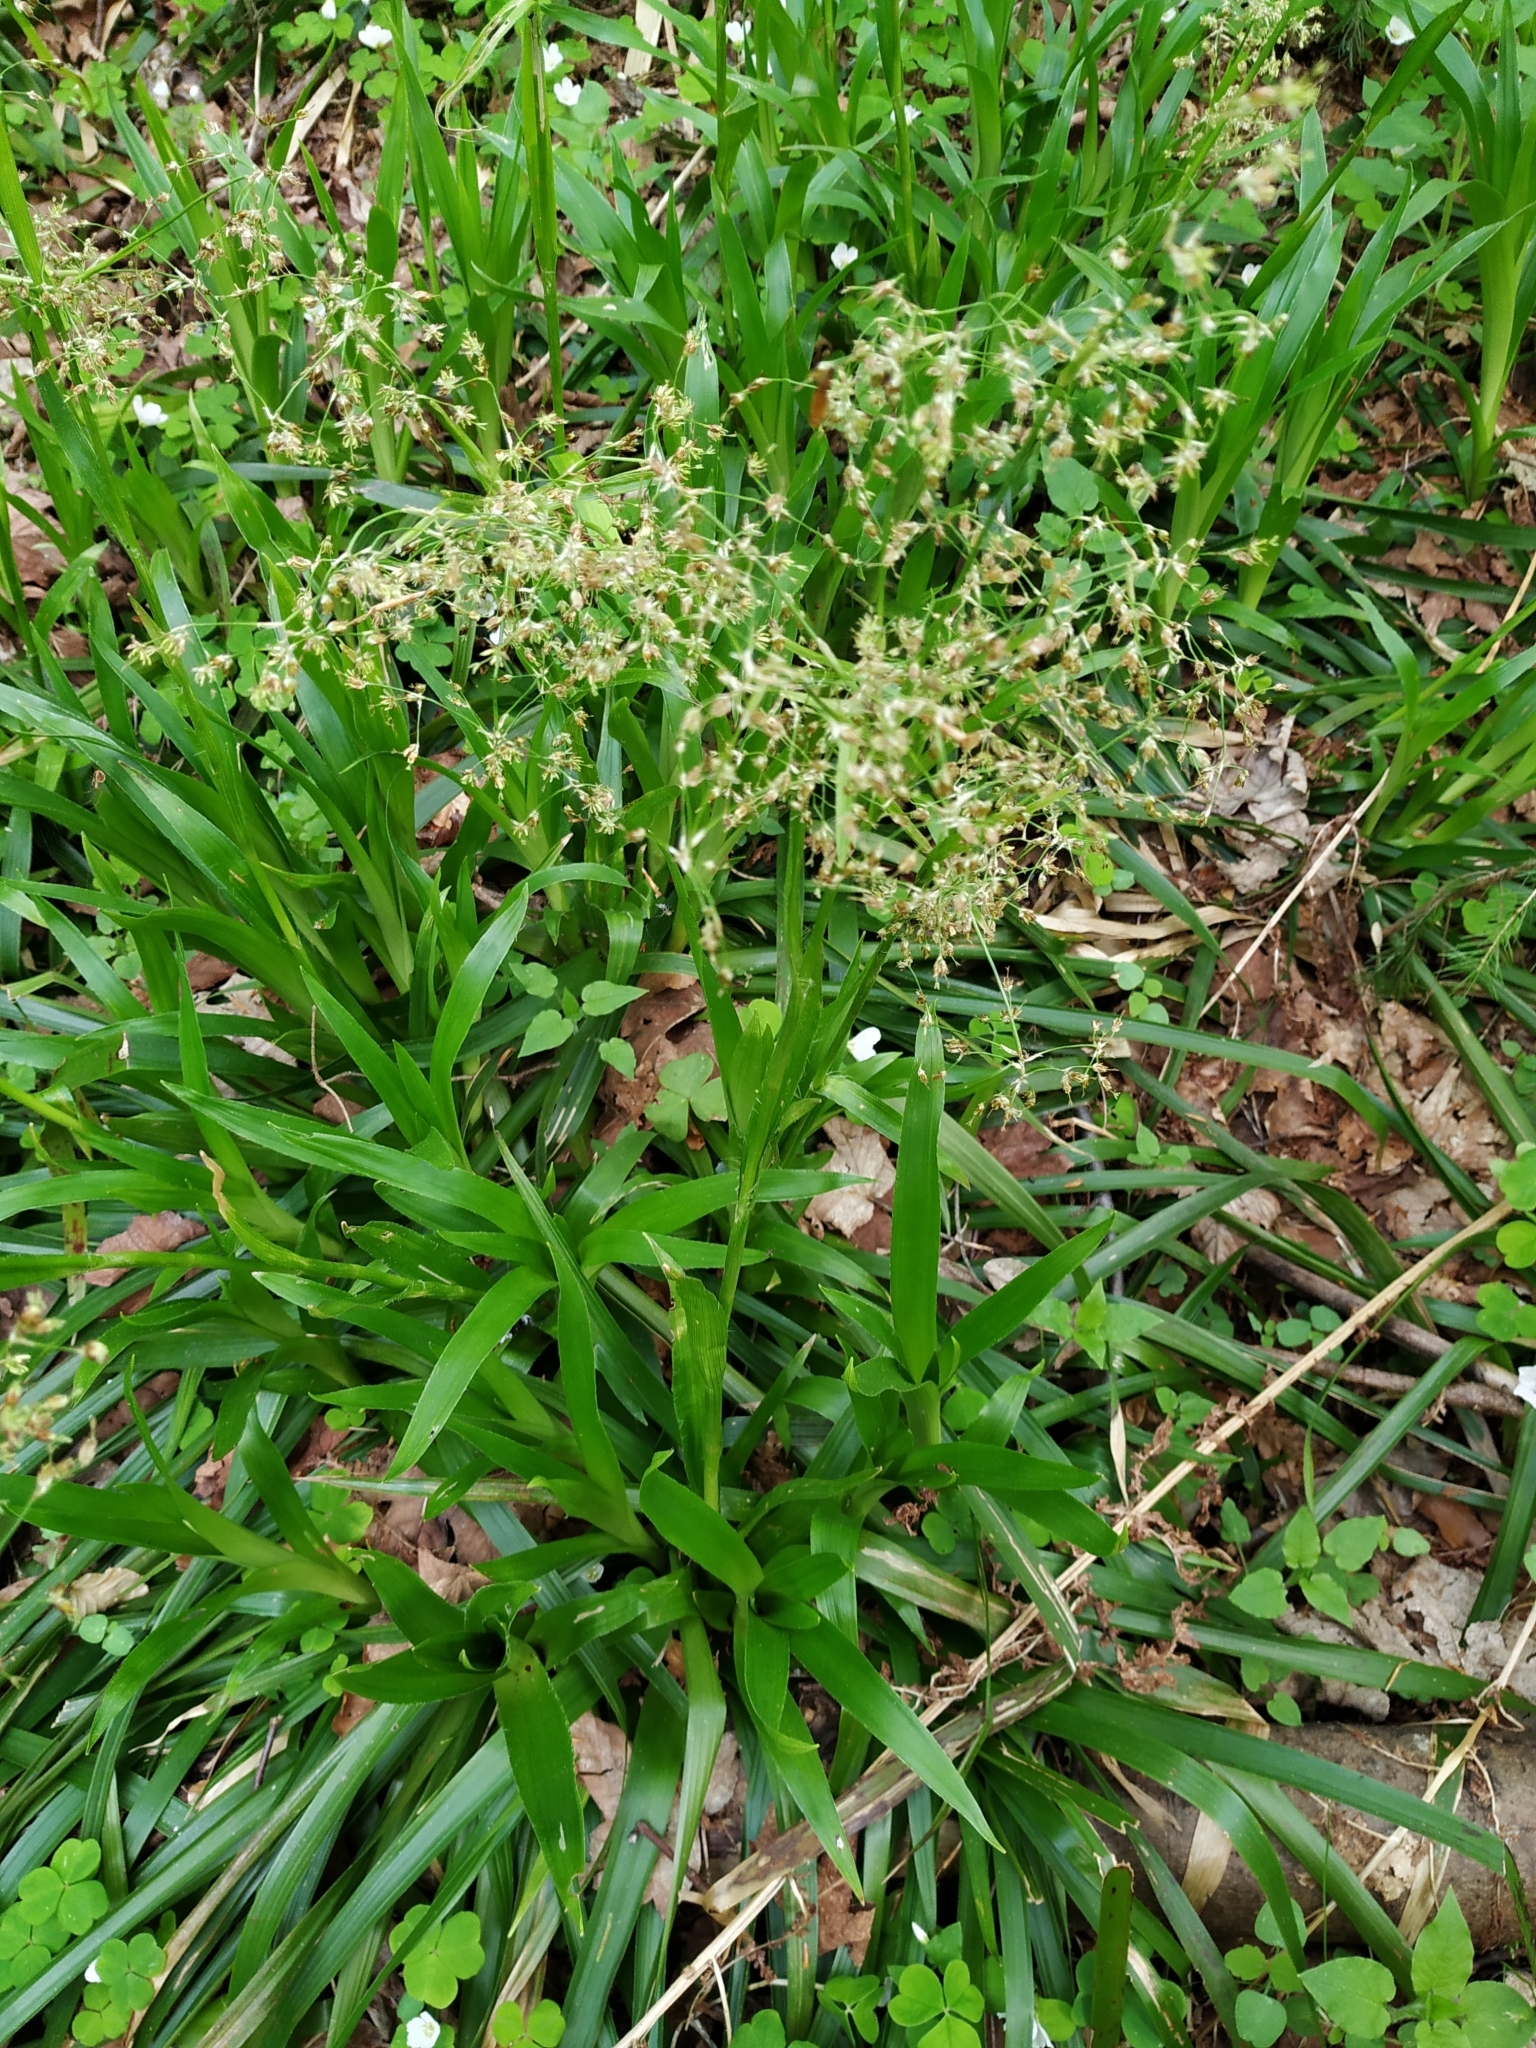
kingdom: Plantae
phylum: Tracheophyta
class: Liliopsida
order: Poales
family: Juncaceae
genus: Luzula
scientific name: Luzula sylvatica
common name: Great wood-rush
